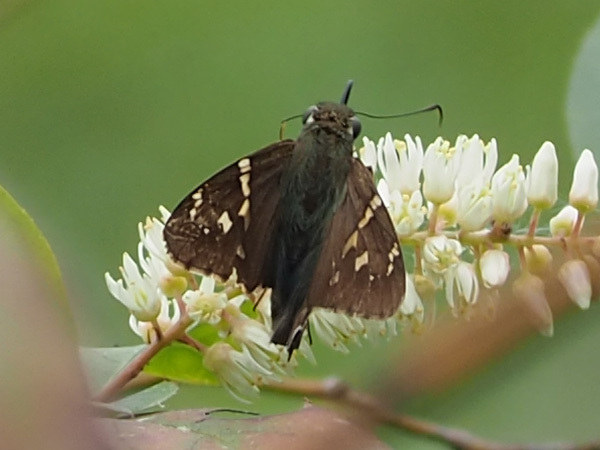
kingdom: Animalia
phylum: Arthropoda
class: Insecta
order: Lepidoptera
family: Hesperiidae
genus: Urbanus
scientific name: Urbanus proteus
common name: Long-tailed skipper
